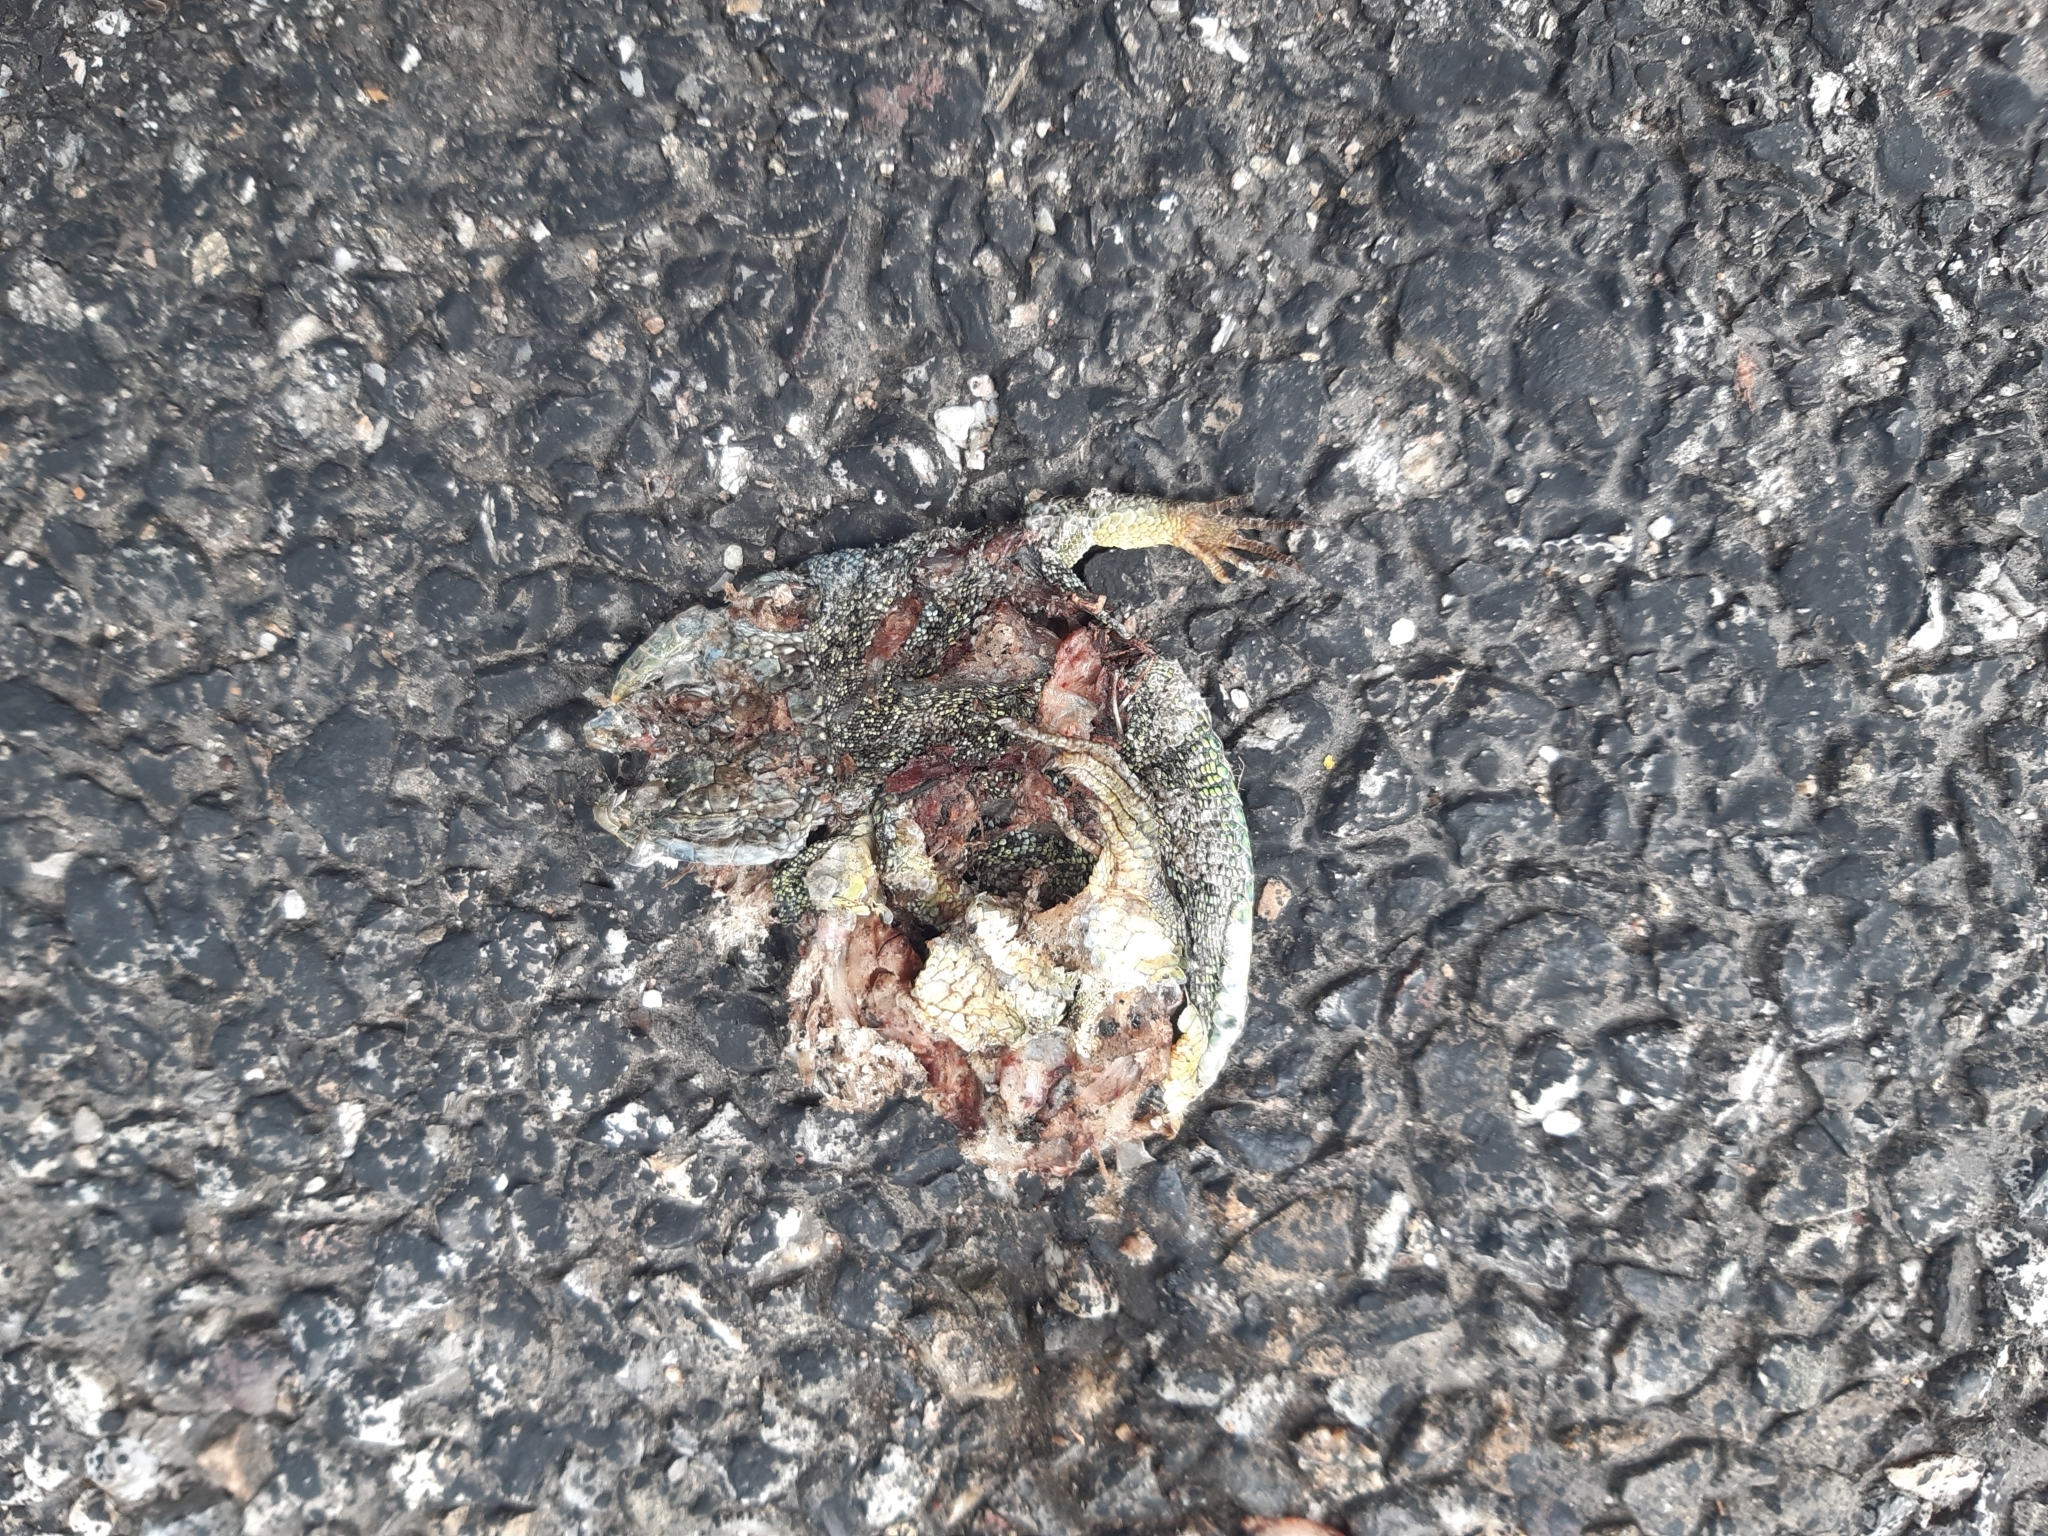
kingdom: Animalia
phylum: Chordata
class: Squamata
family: Lacertidae
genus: Lacerta
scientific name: Lacerta bilineata
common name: Western green lizard
